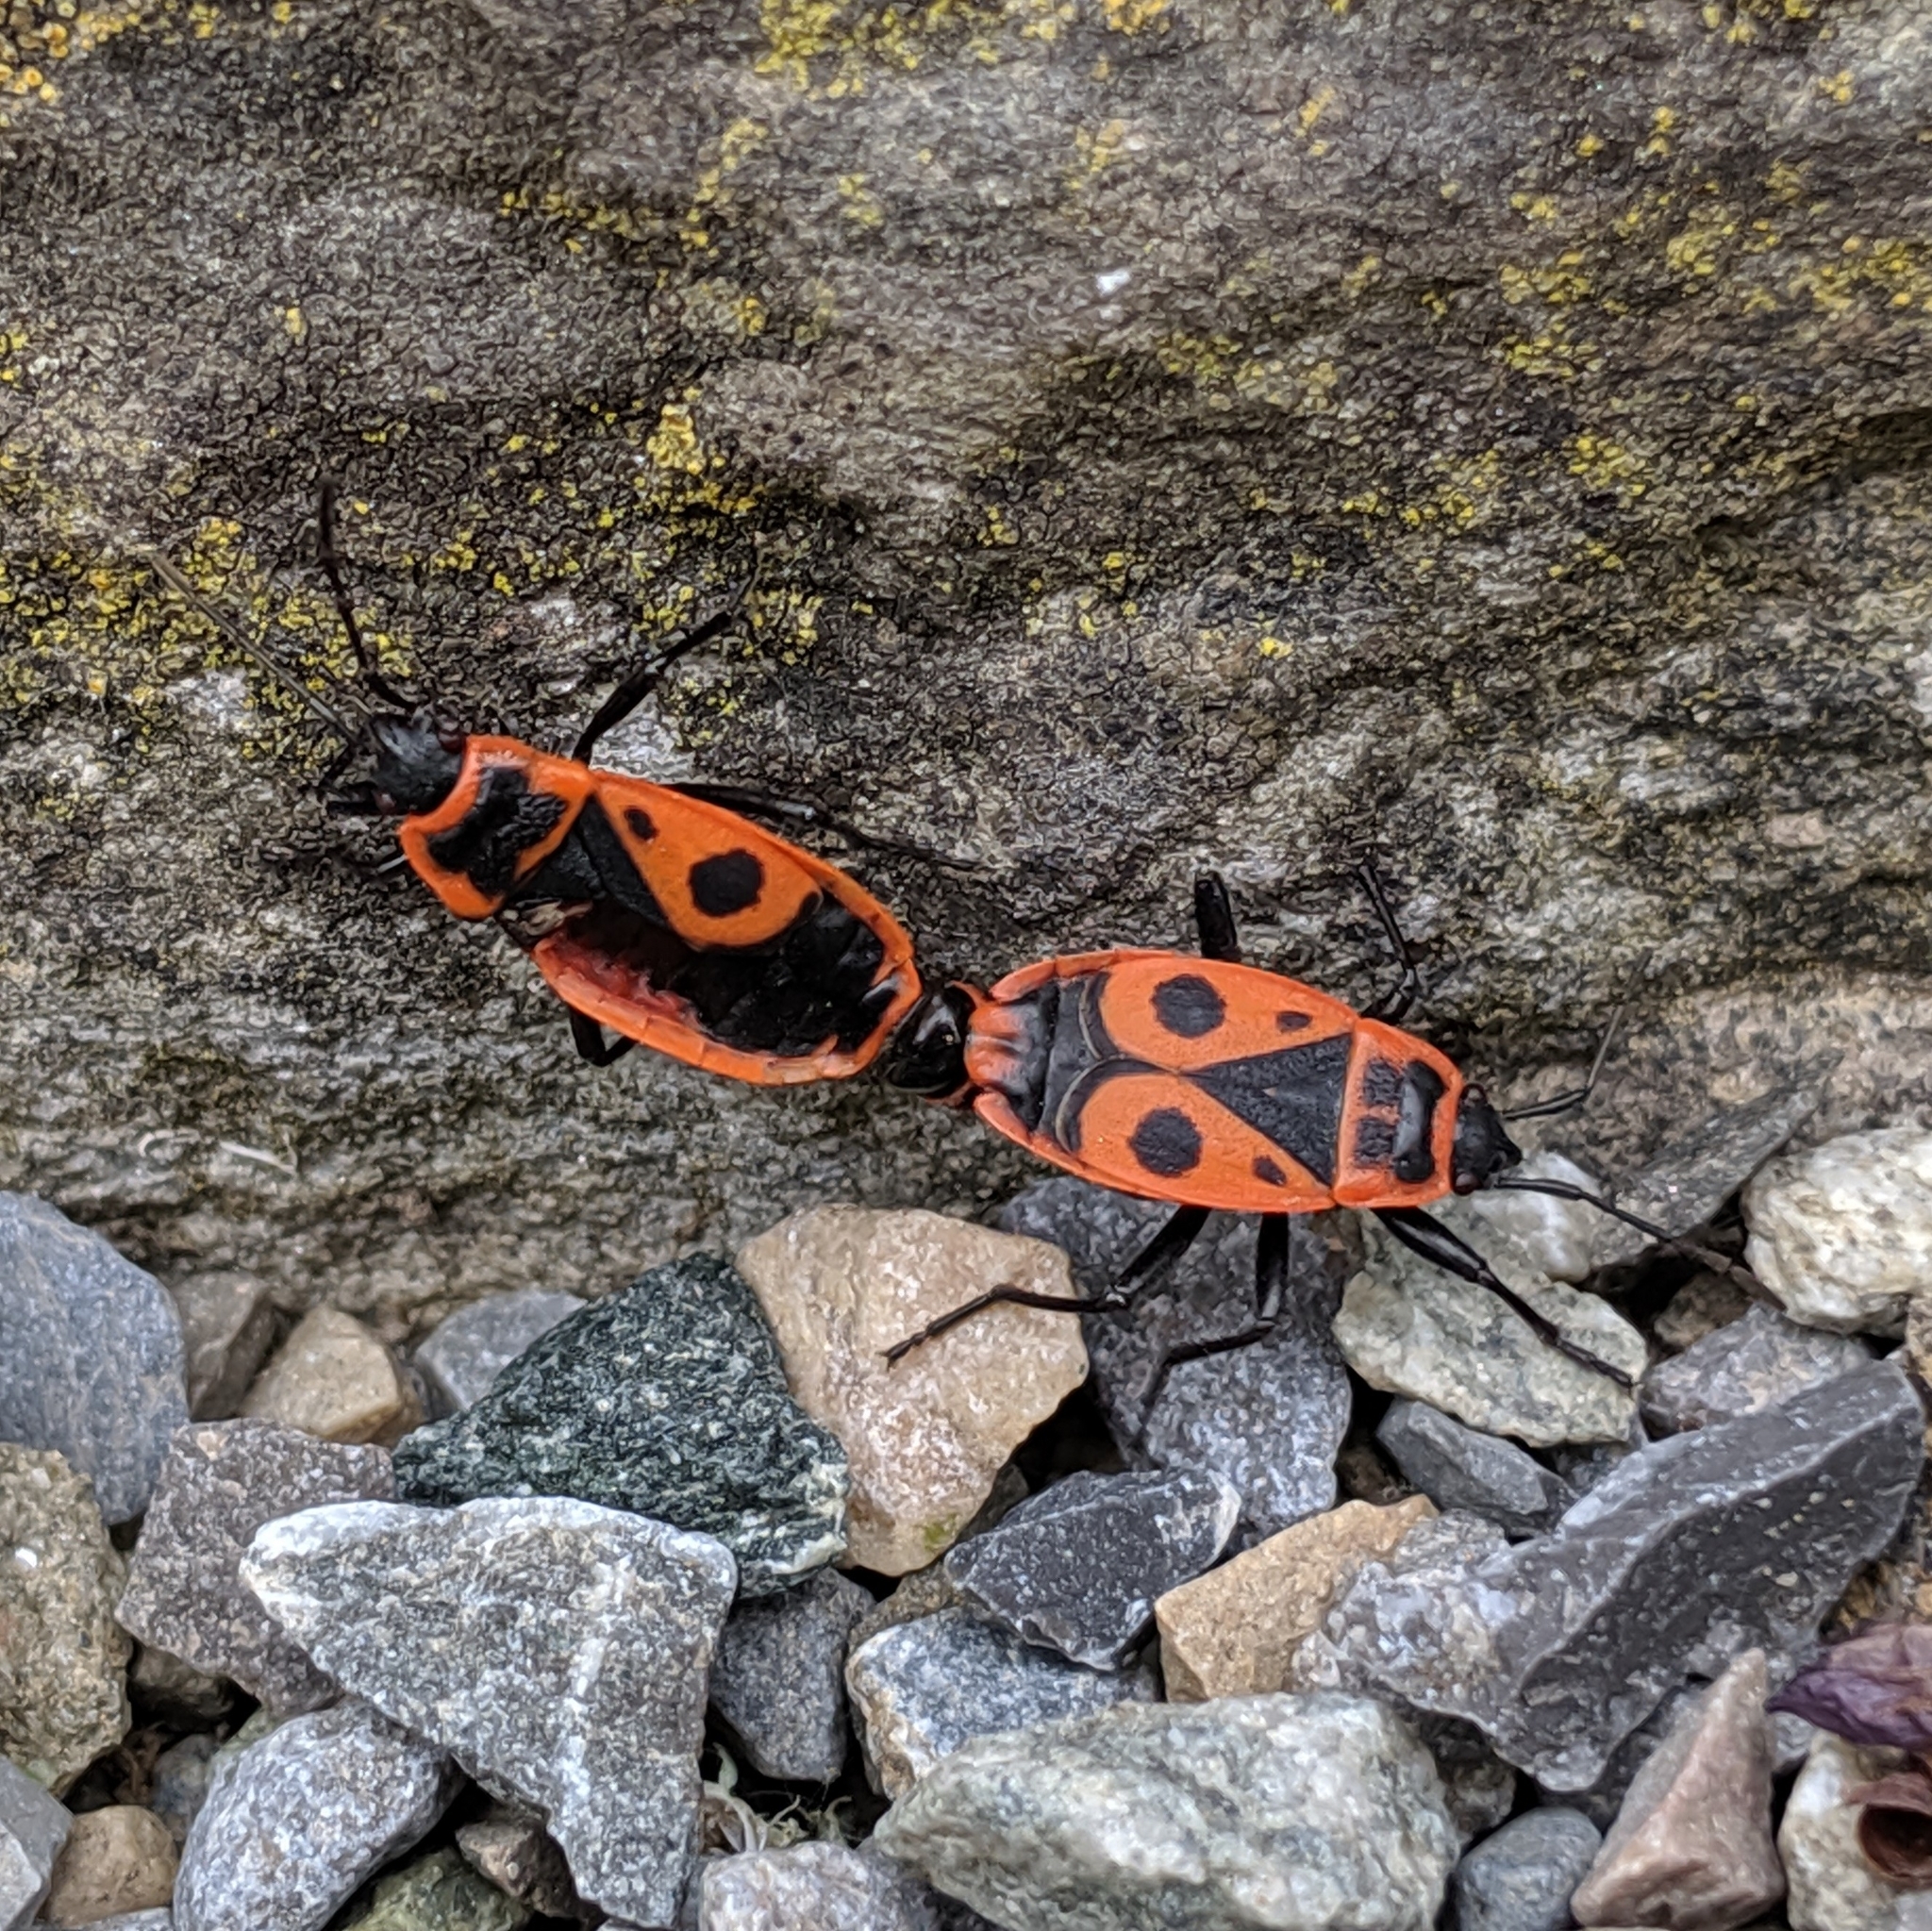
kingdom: Animalia
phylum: Arthropoda
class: Insecta
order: Hemiptera
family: Pyrrhocoridae
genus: Pyrrhocoris
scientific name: Pyrrhocoris apterus
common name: Firebug
